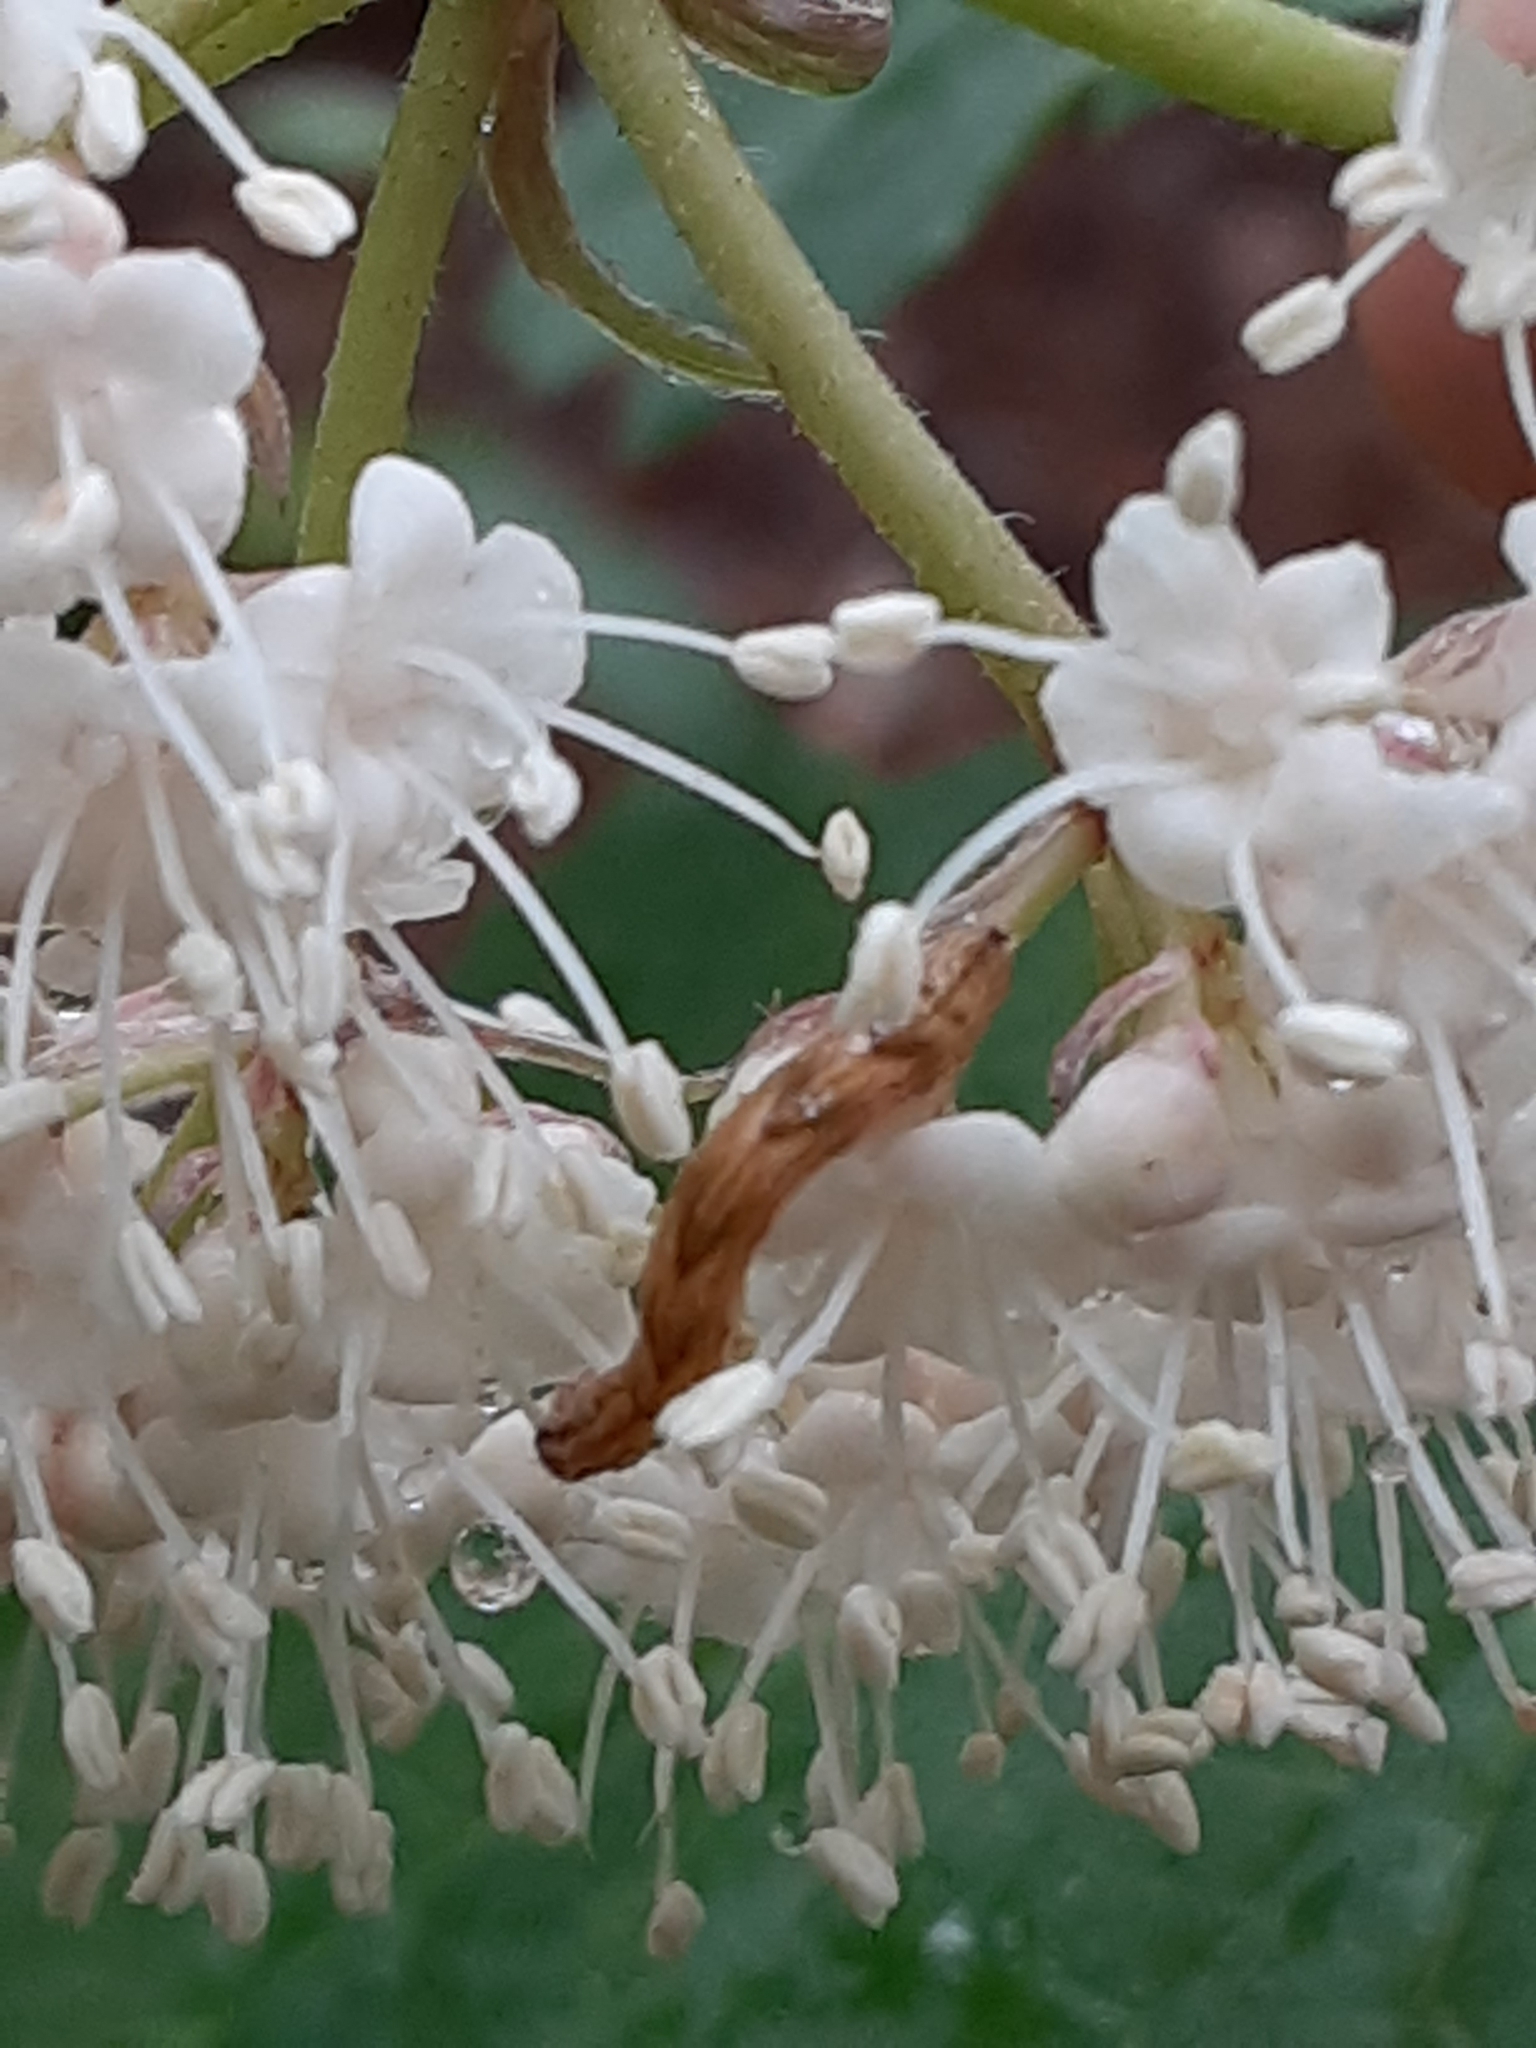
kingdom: Animalia
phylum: Arthropoda
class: Insecta
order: Lepidoptera
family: Geometridae
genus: Eupithecia
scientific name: Eupithecia miserulata
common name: Common eupithecia
